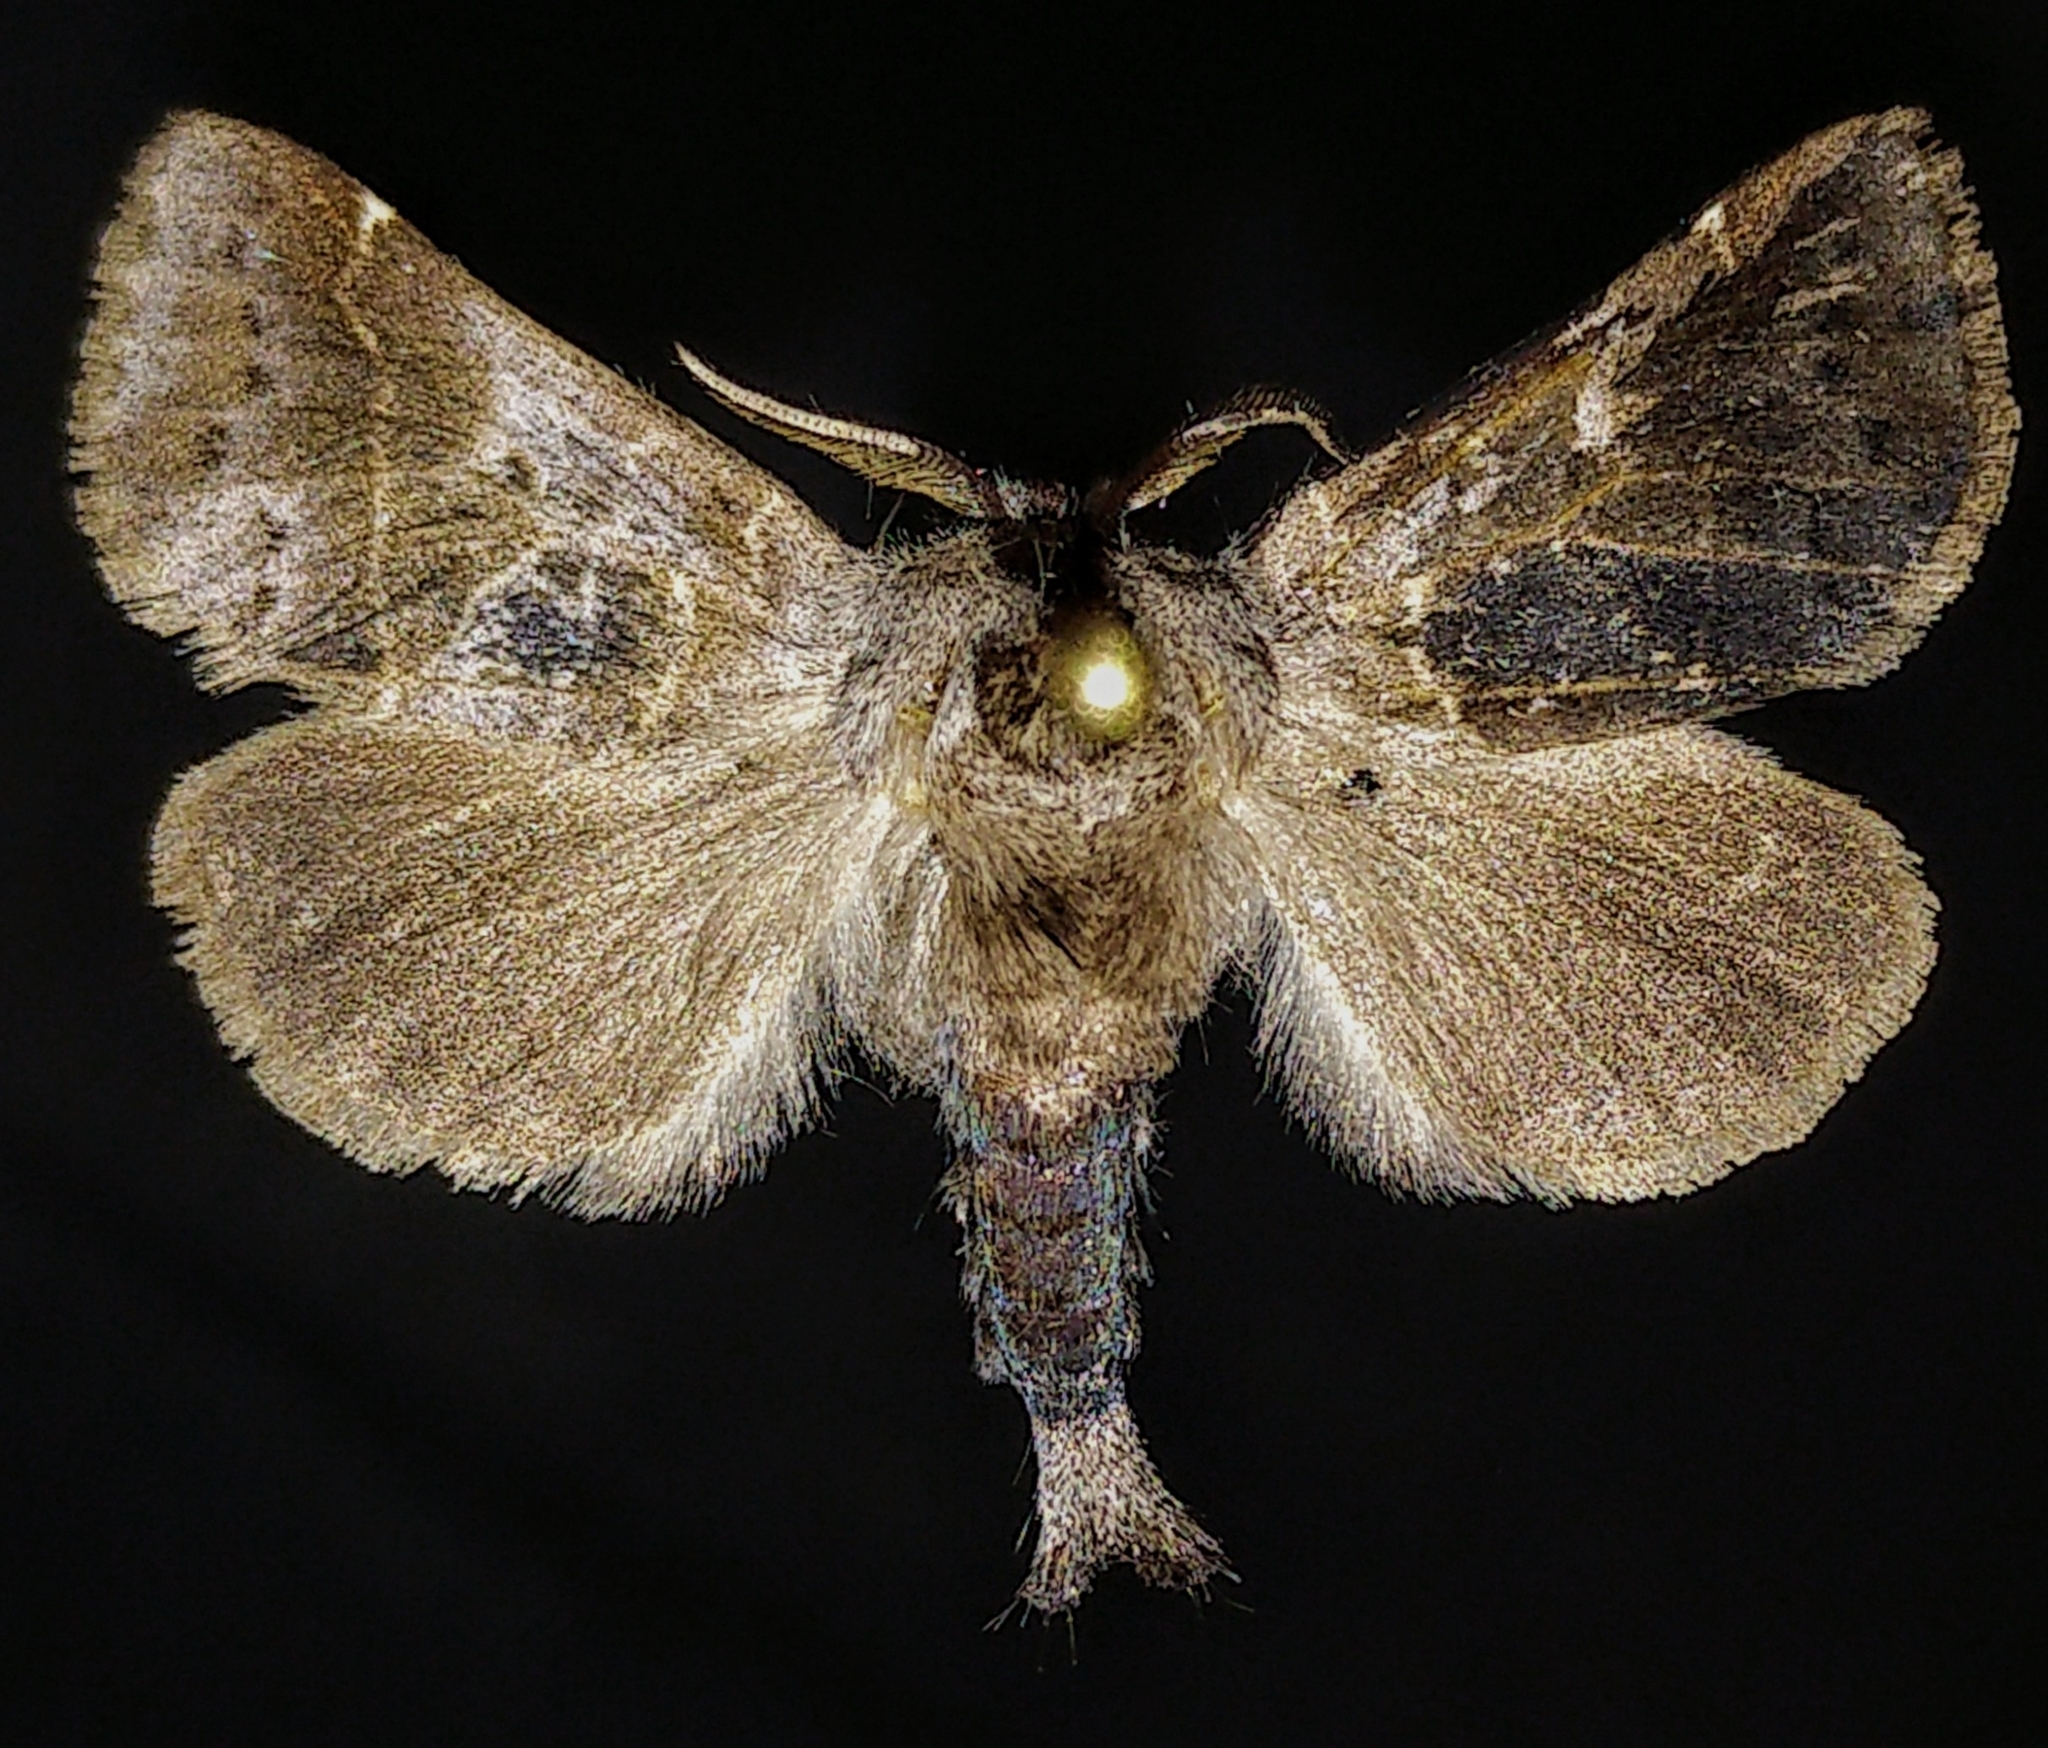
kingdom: Animalia
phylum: Arthropoda
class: Insecta
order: Lepidoptera
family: Notodontidae
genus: Clostera
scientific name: Clostera brucei
